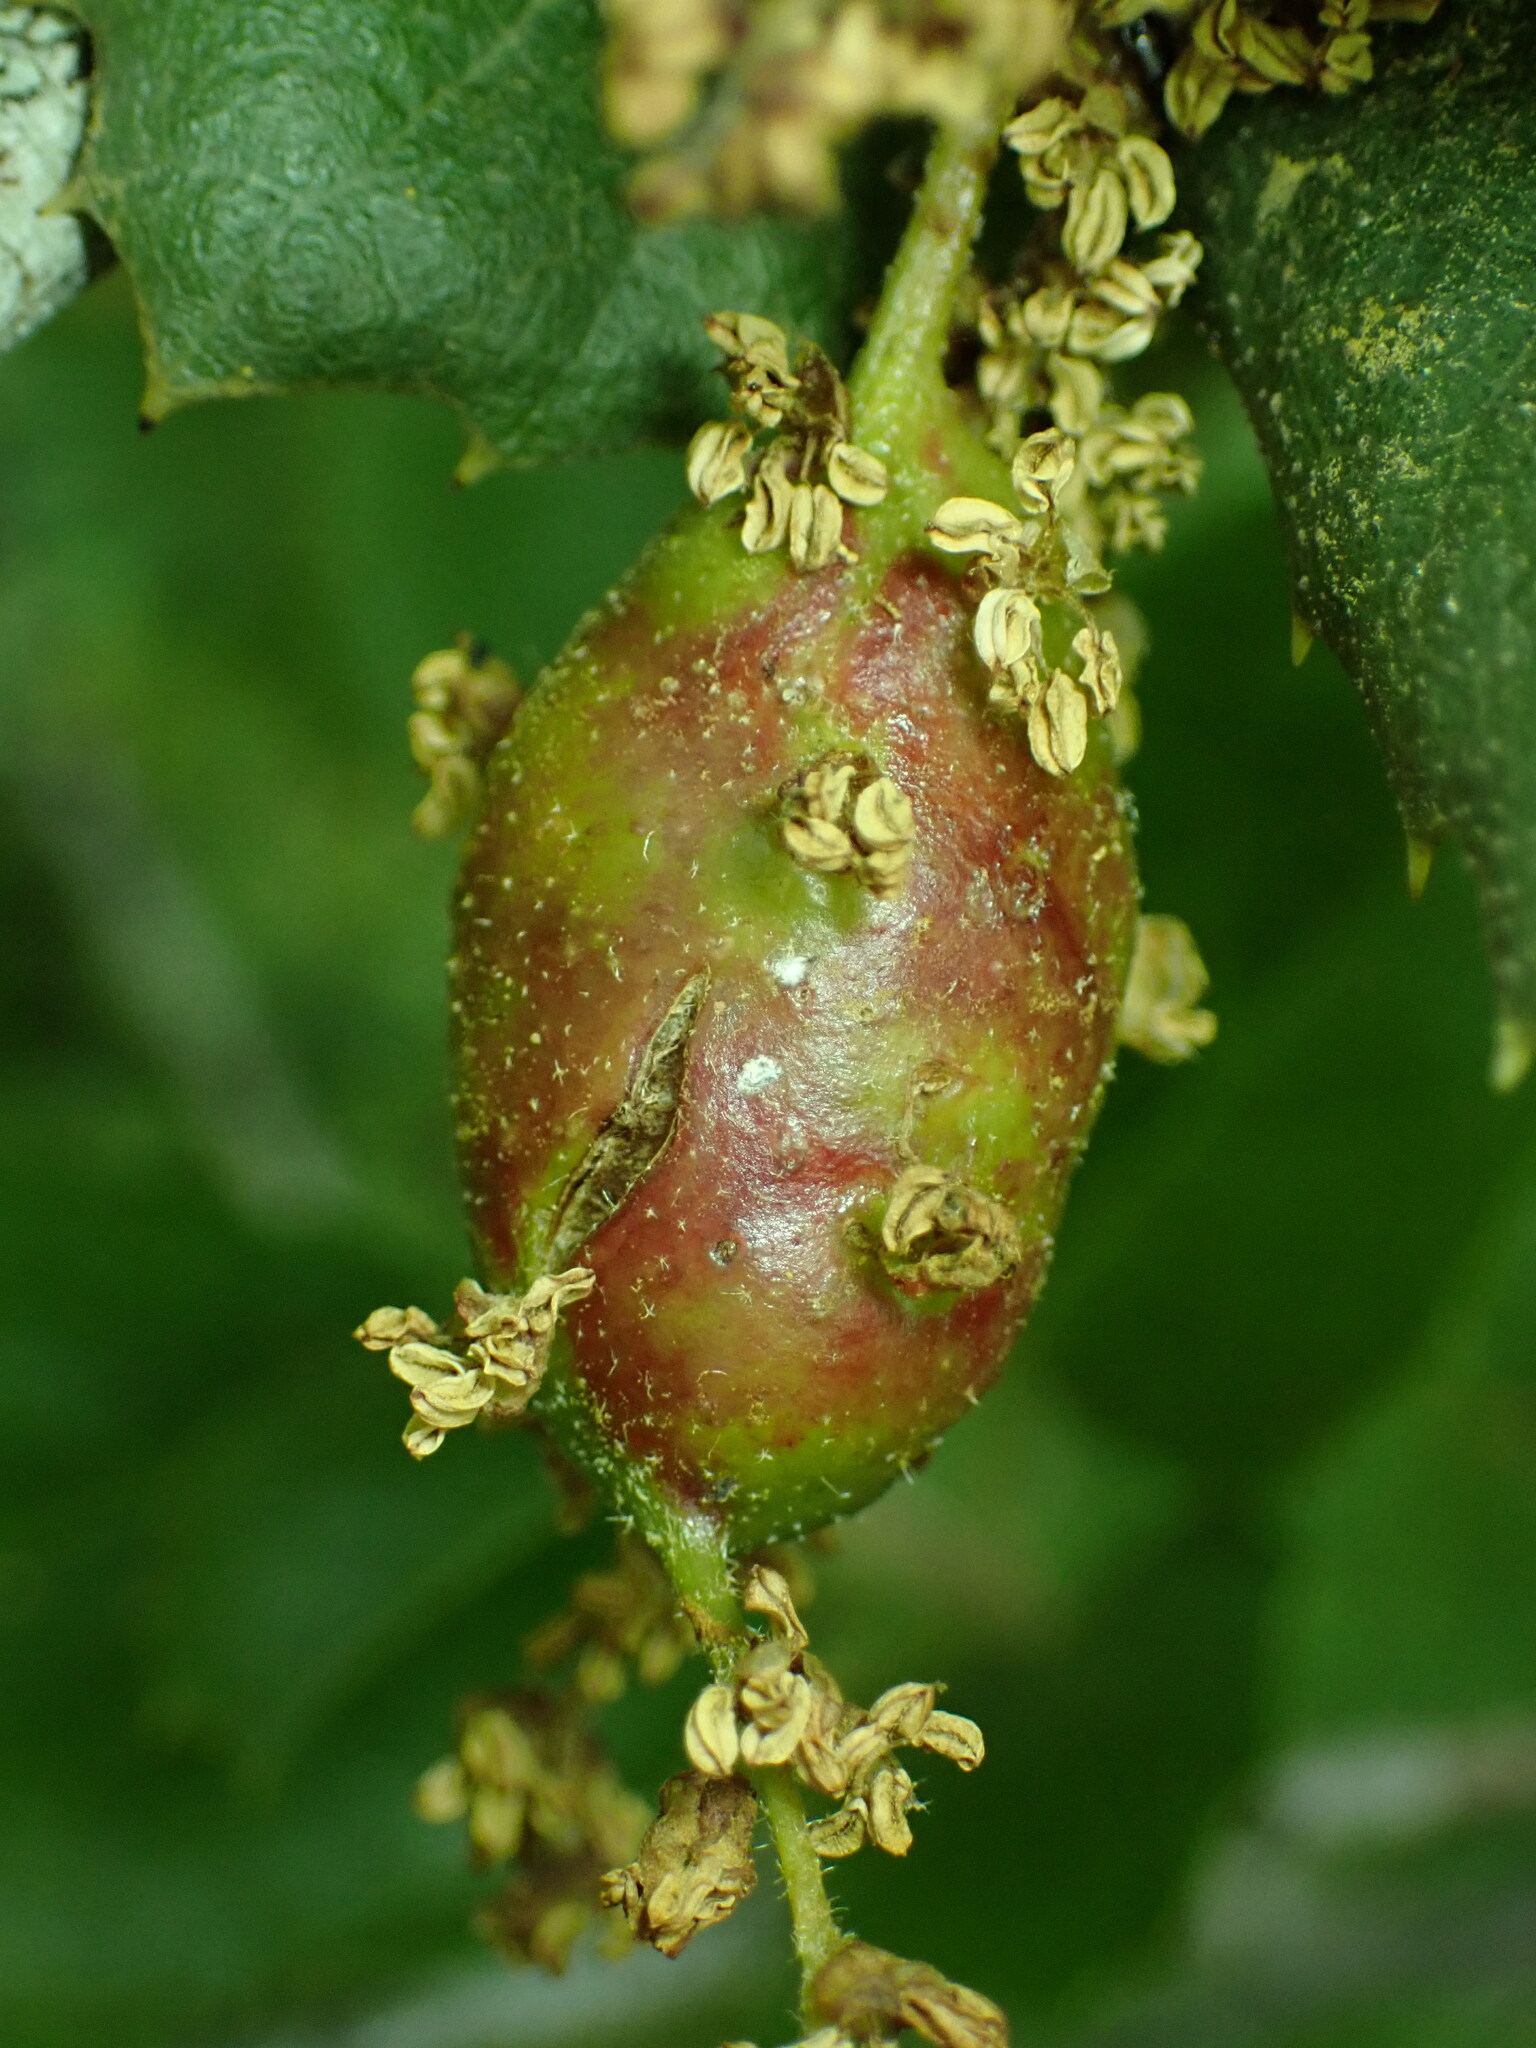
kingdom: Animalia
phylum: Arthropoda
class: Insecta
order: Hymenoptera
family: Cynipidae
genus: Callirhytis
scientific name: Callirhytis
